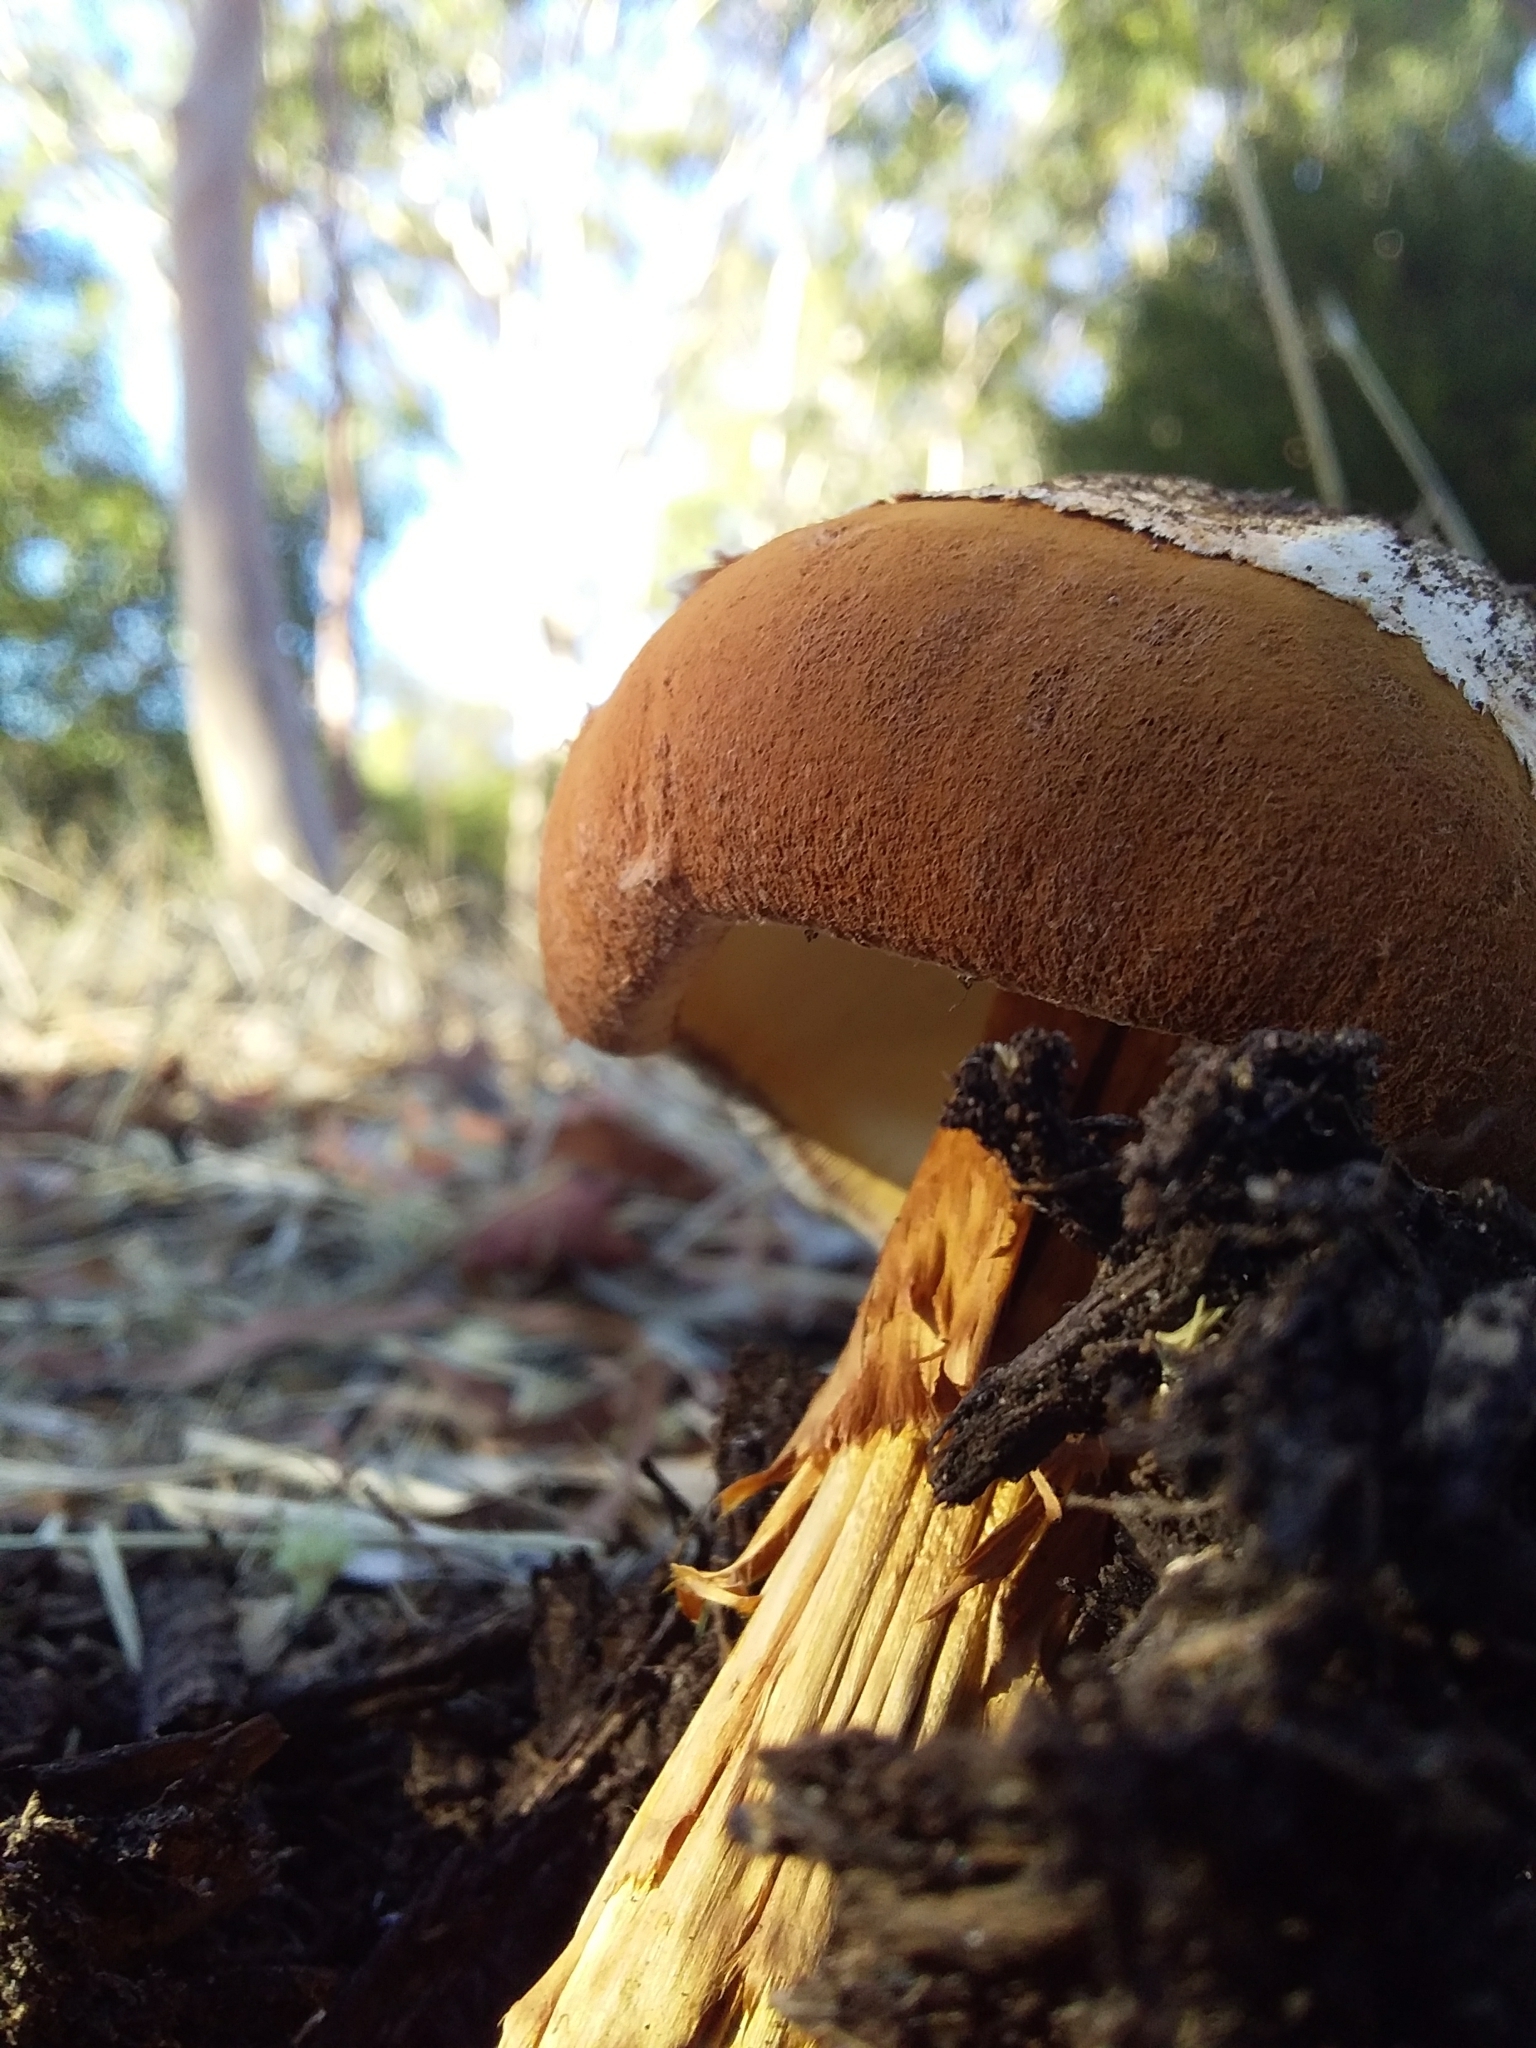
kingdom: Fungi
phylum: Basidiomycota
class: Agaricomycetes
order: Agaricales
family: Agaricaceae
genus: Battarrea
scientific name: Battarrea phalloides
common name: Sandy stiltball
